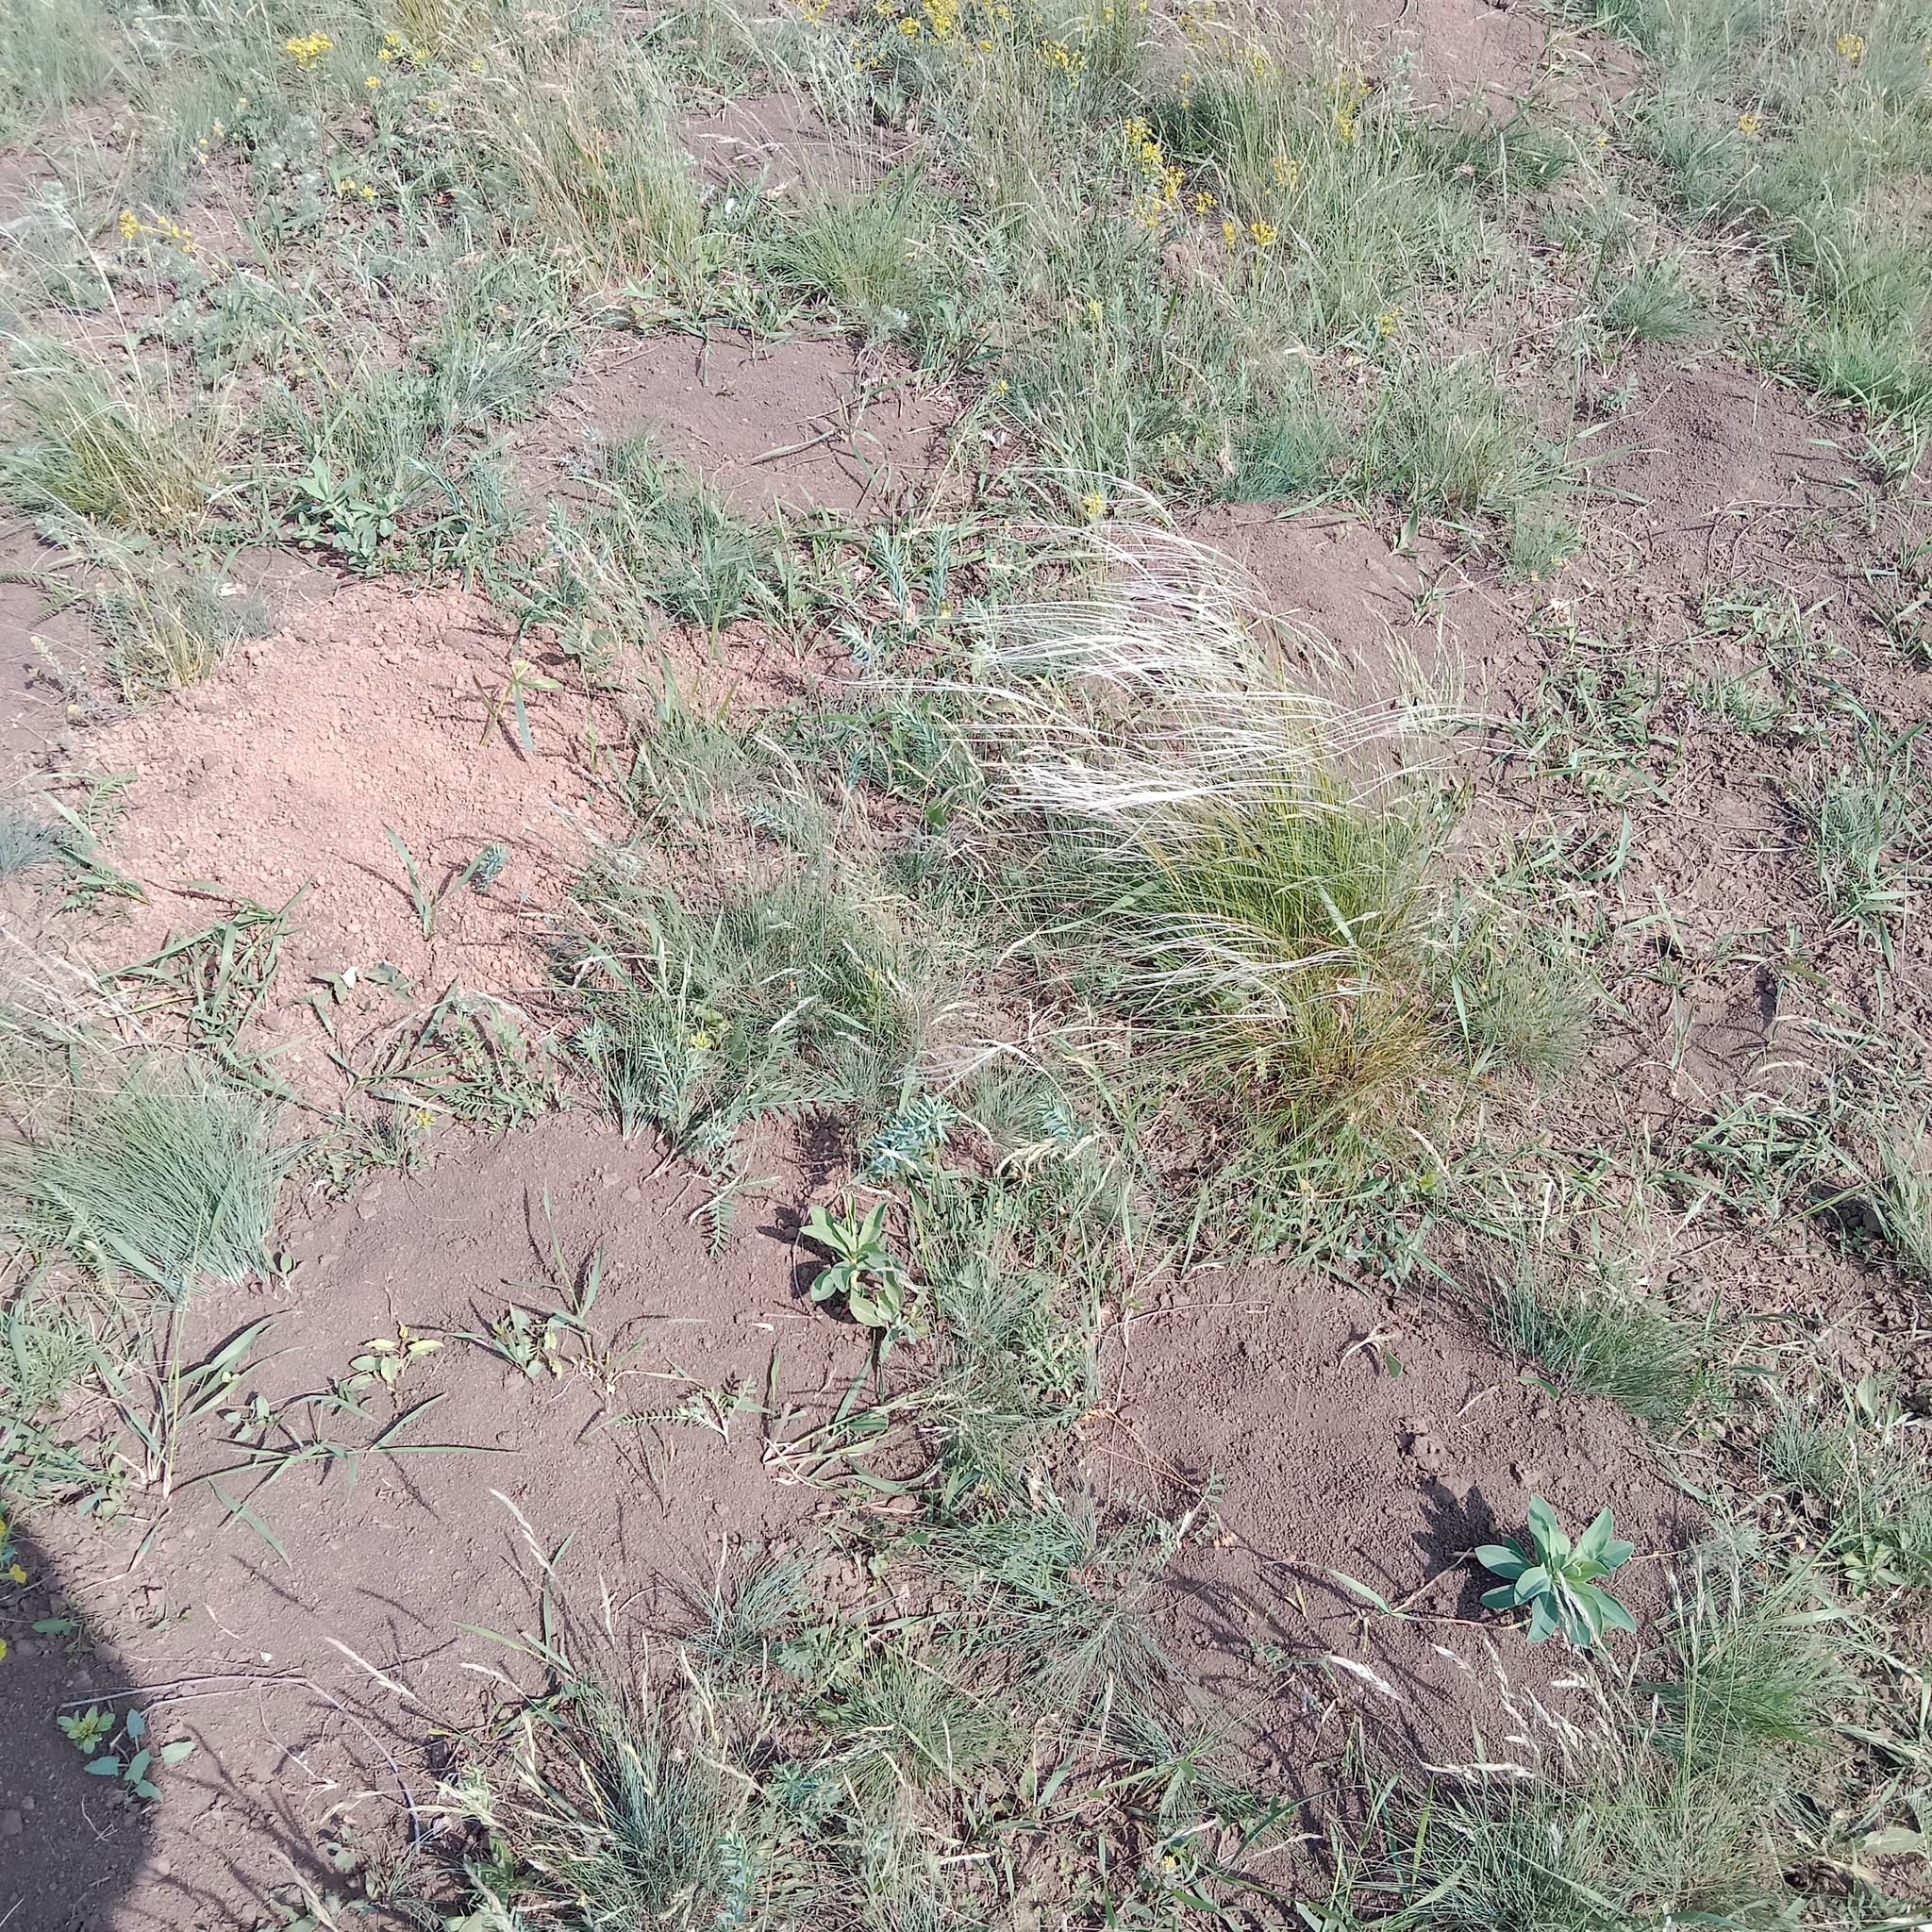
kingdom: Animalia
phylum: Chordata
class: Mammalia
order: Rodentia
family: Spalacidae
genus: Spalax
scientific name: Spalax leucodon
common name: Lesser blind mole rat
